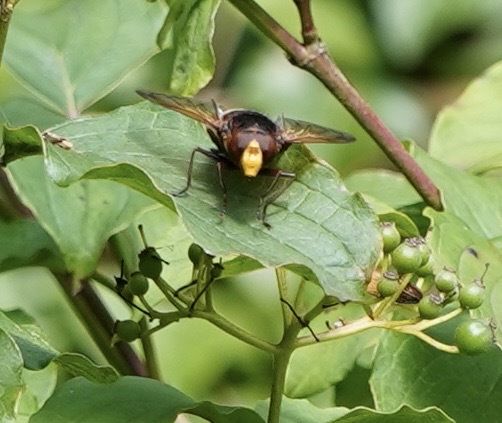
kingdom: Animalia
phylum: Arthropoda
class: Insecta
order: Diptera
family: Syrphidae
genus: Volucella
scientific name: Volucella zonaria
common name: Hornet hoverfly
